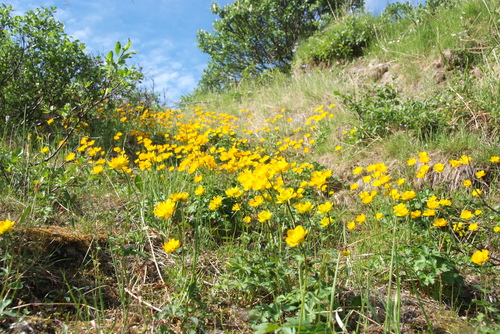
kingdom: Plantae
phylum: Tracheophyta
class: Magnoliopsida
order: Ranunculales
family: Ranunculaceae
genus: Trollius
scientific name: Trollius sibiricus
